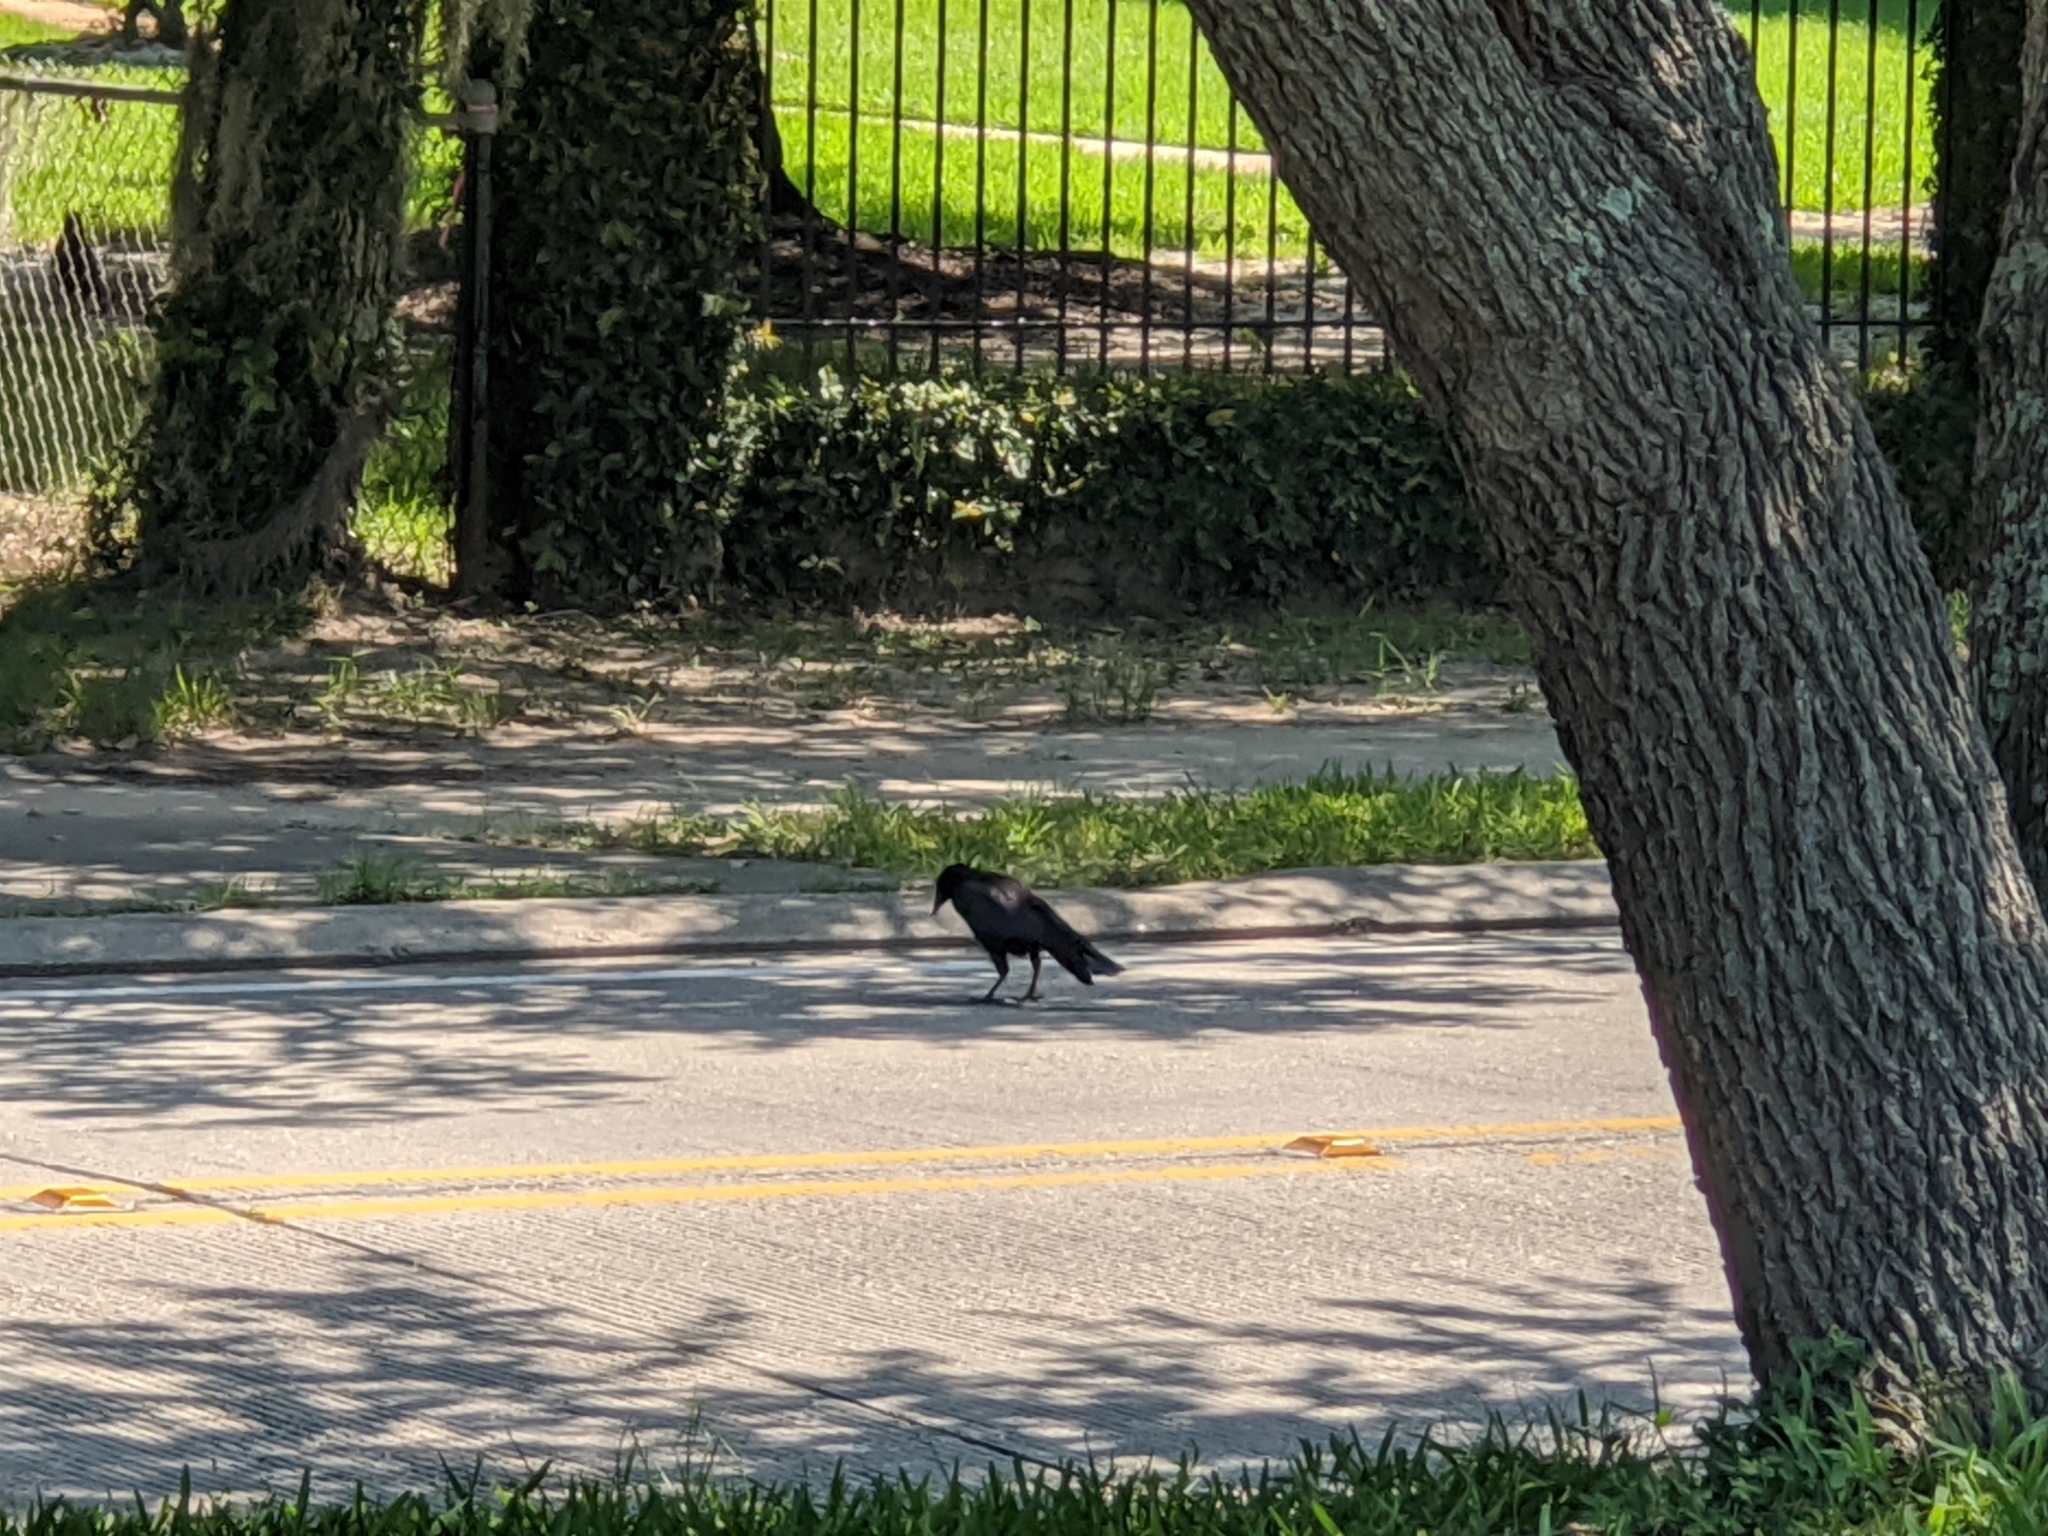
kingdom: Animalia
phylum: Chordata
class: Aves
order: Passeriformes
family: Corvidae
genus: Corvus
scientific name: Corvus brachyrhynchos
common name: American crow
